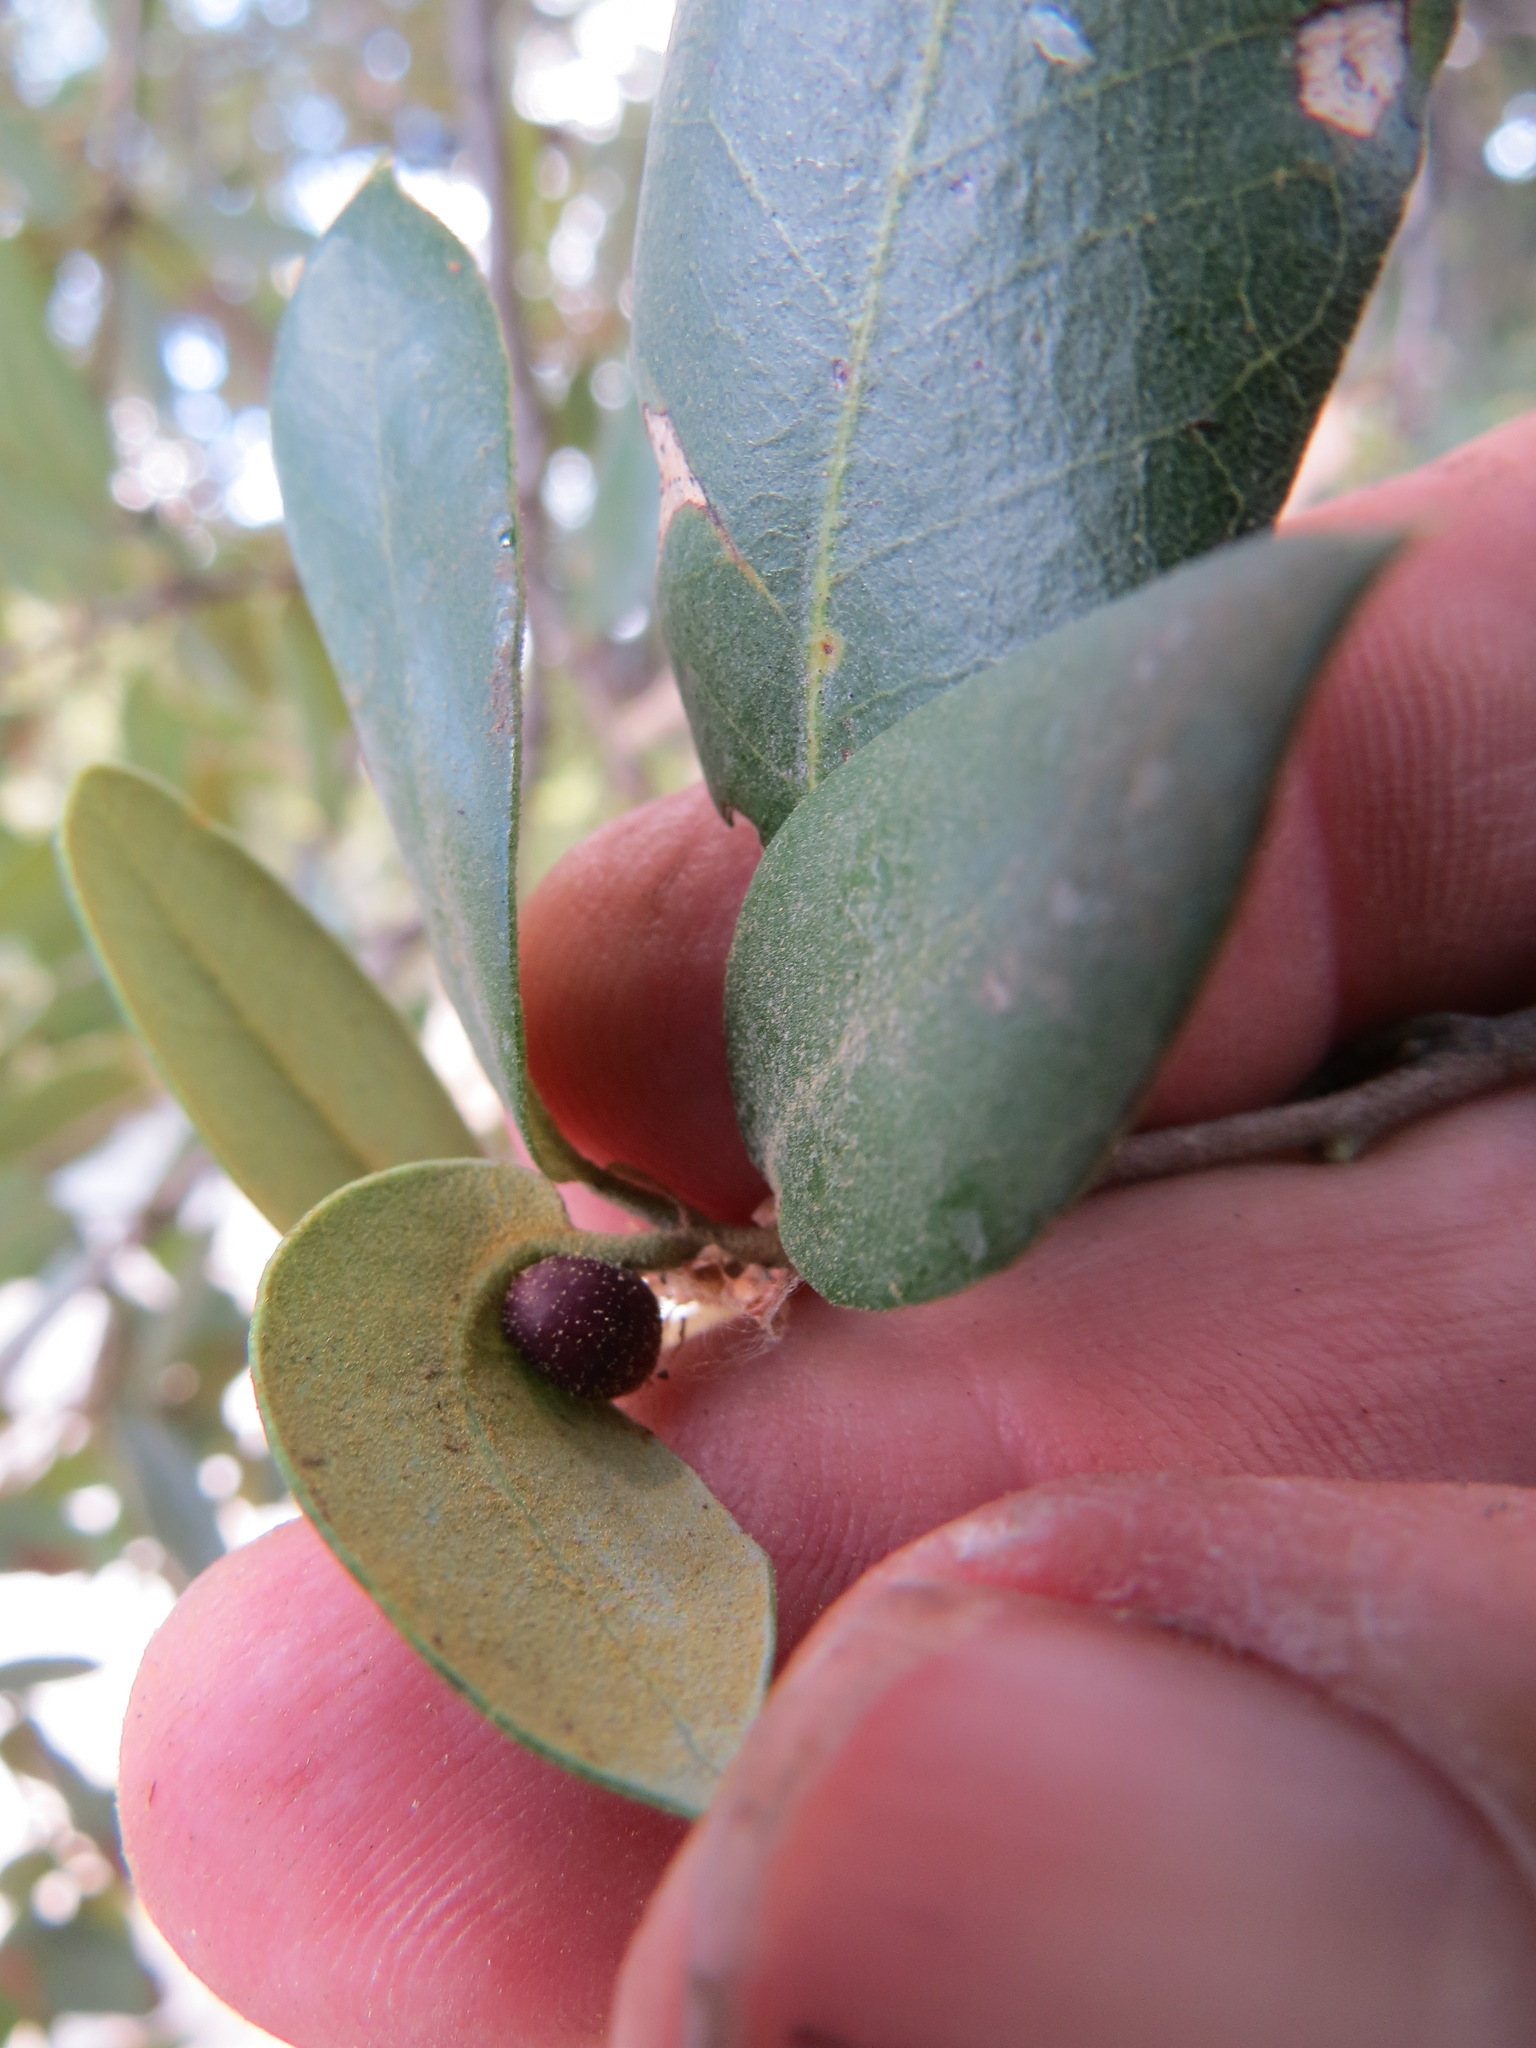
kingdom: Animalia
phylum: Arthropoda
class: Insecta
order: Hymenoptera
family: Cynipidae
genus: Heteroecus
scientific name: Heteroecus
